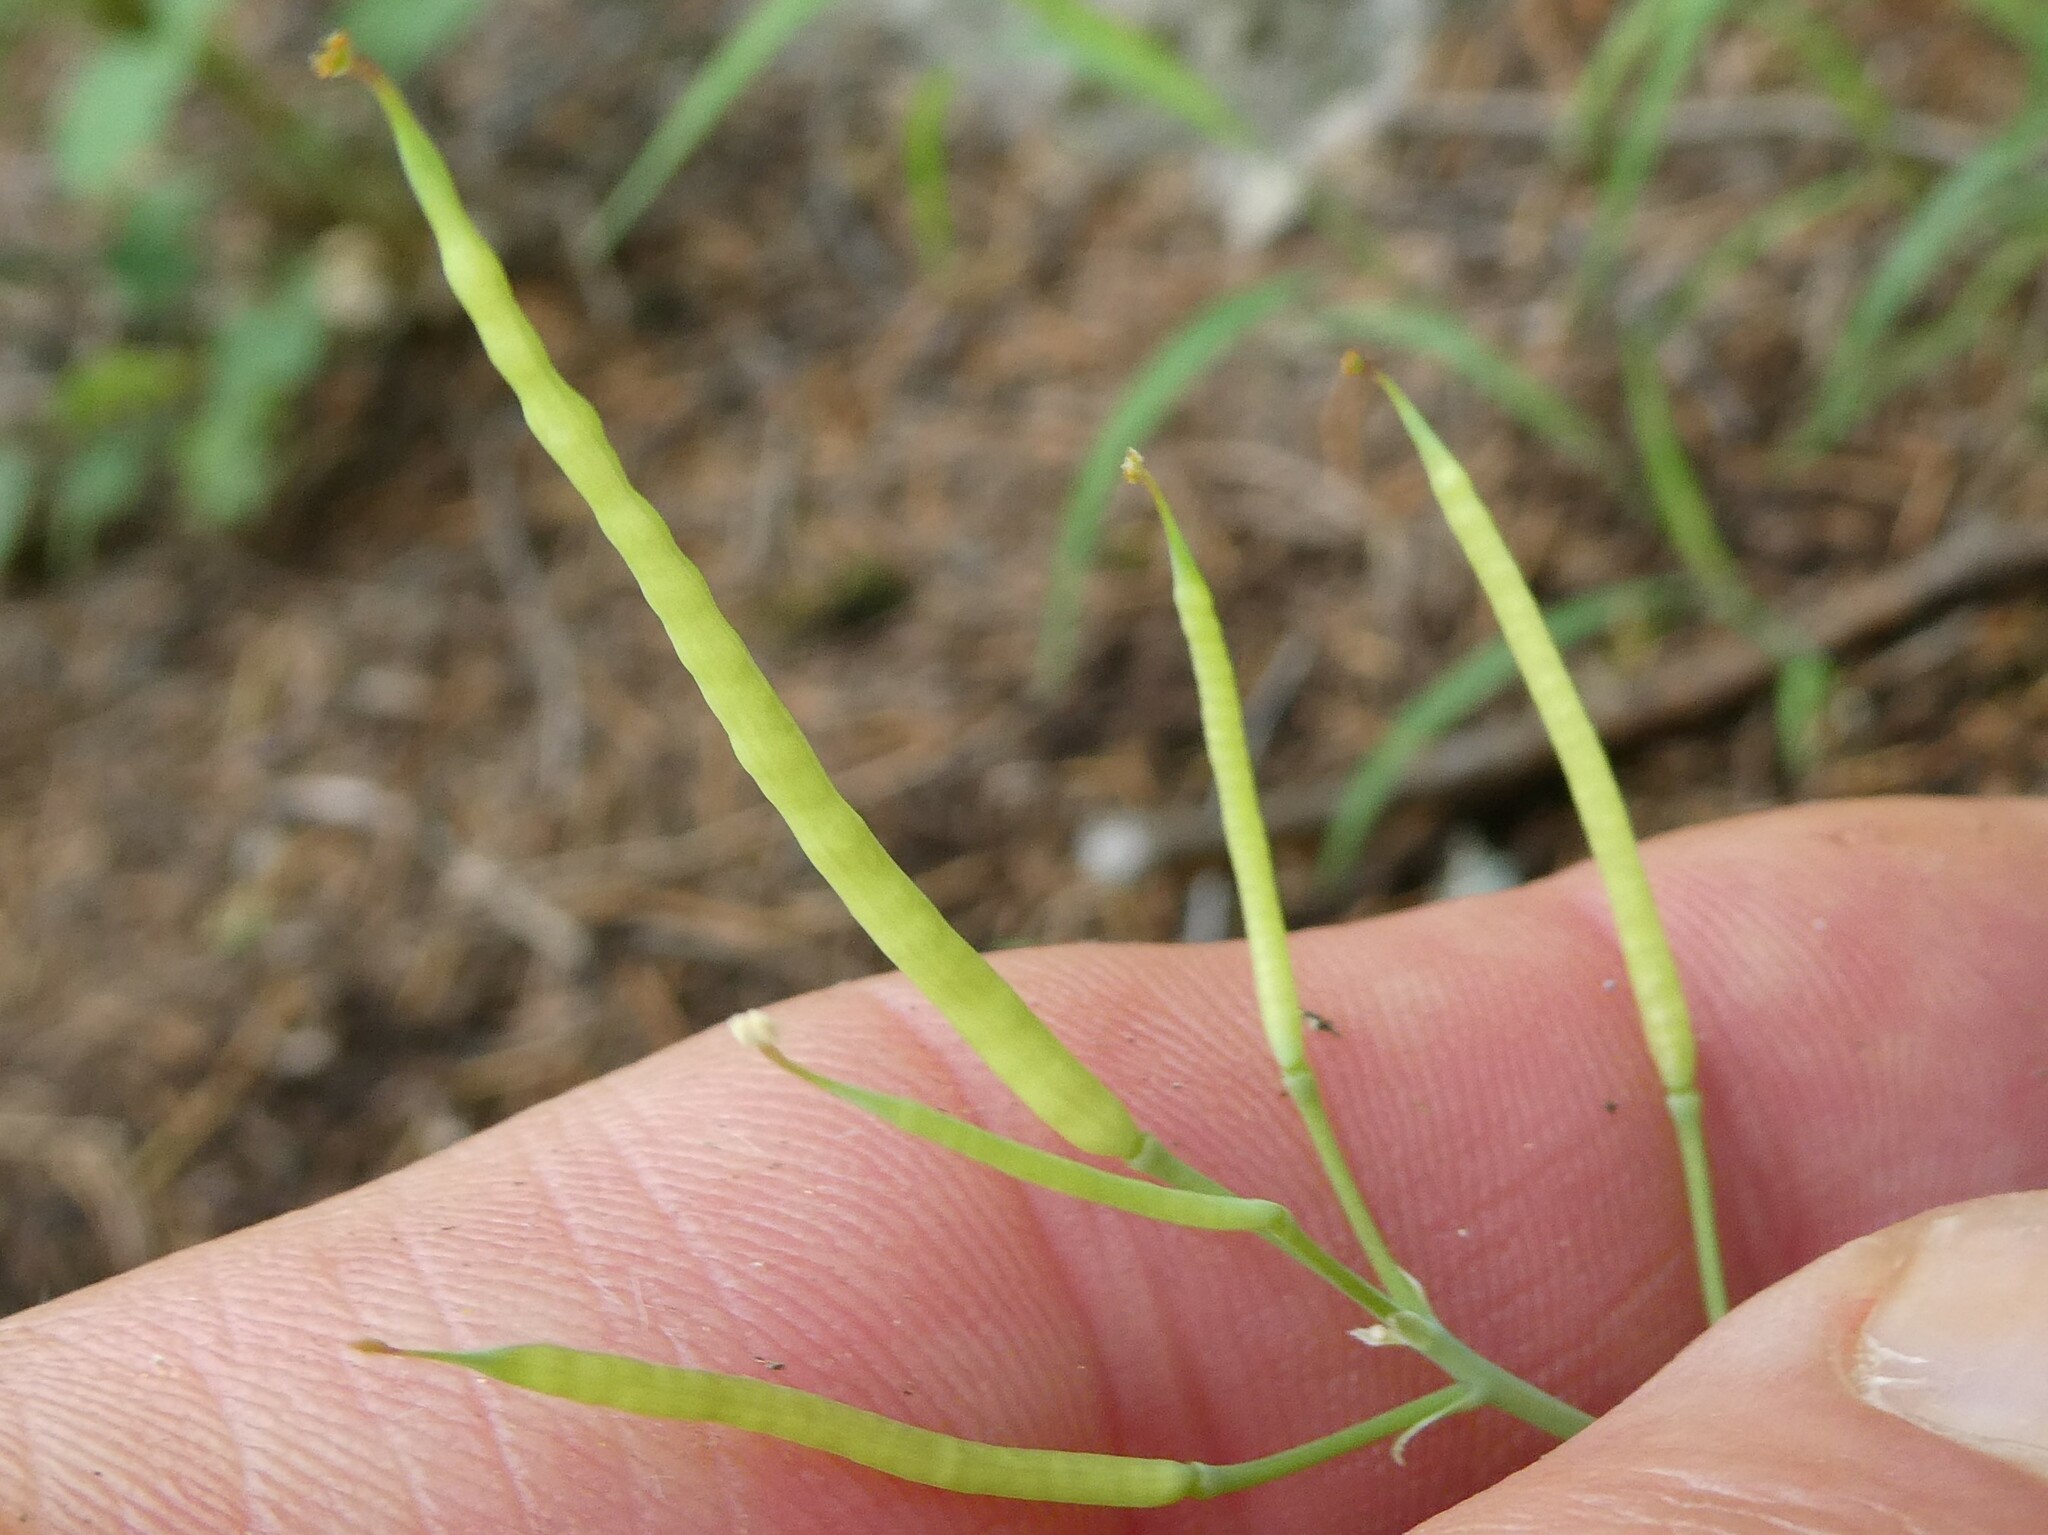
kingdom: Plantae
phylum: Tracheophyta
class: Magnoliopsida
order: Ranunculales
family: Papaveraceae
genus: Capnoides
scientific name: Capnoides sempervirens
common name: Rock harlequin
